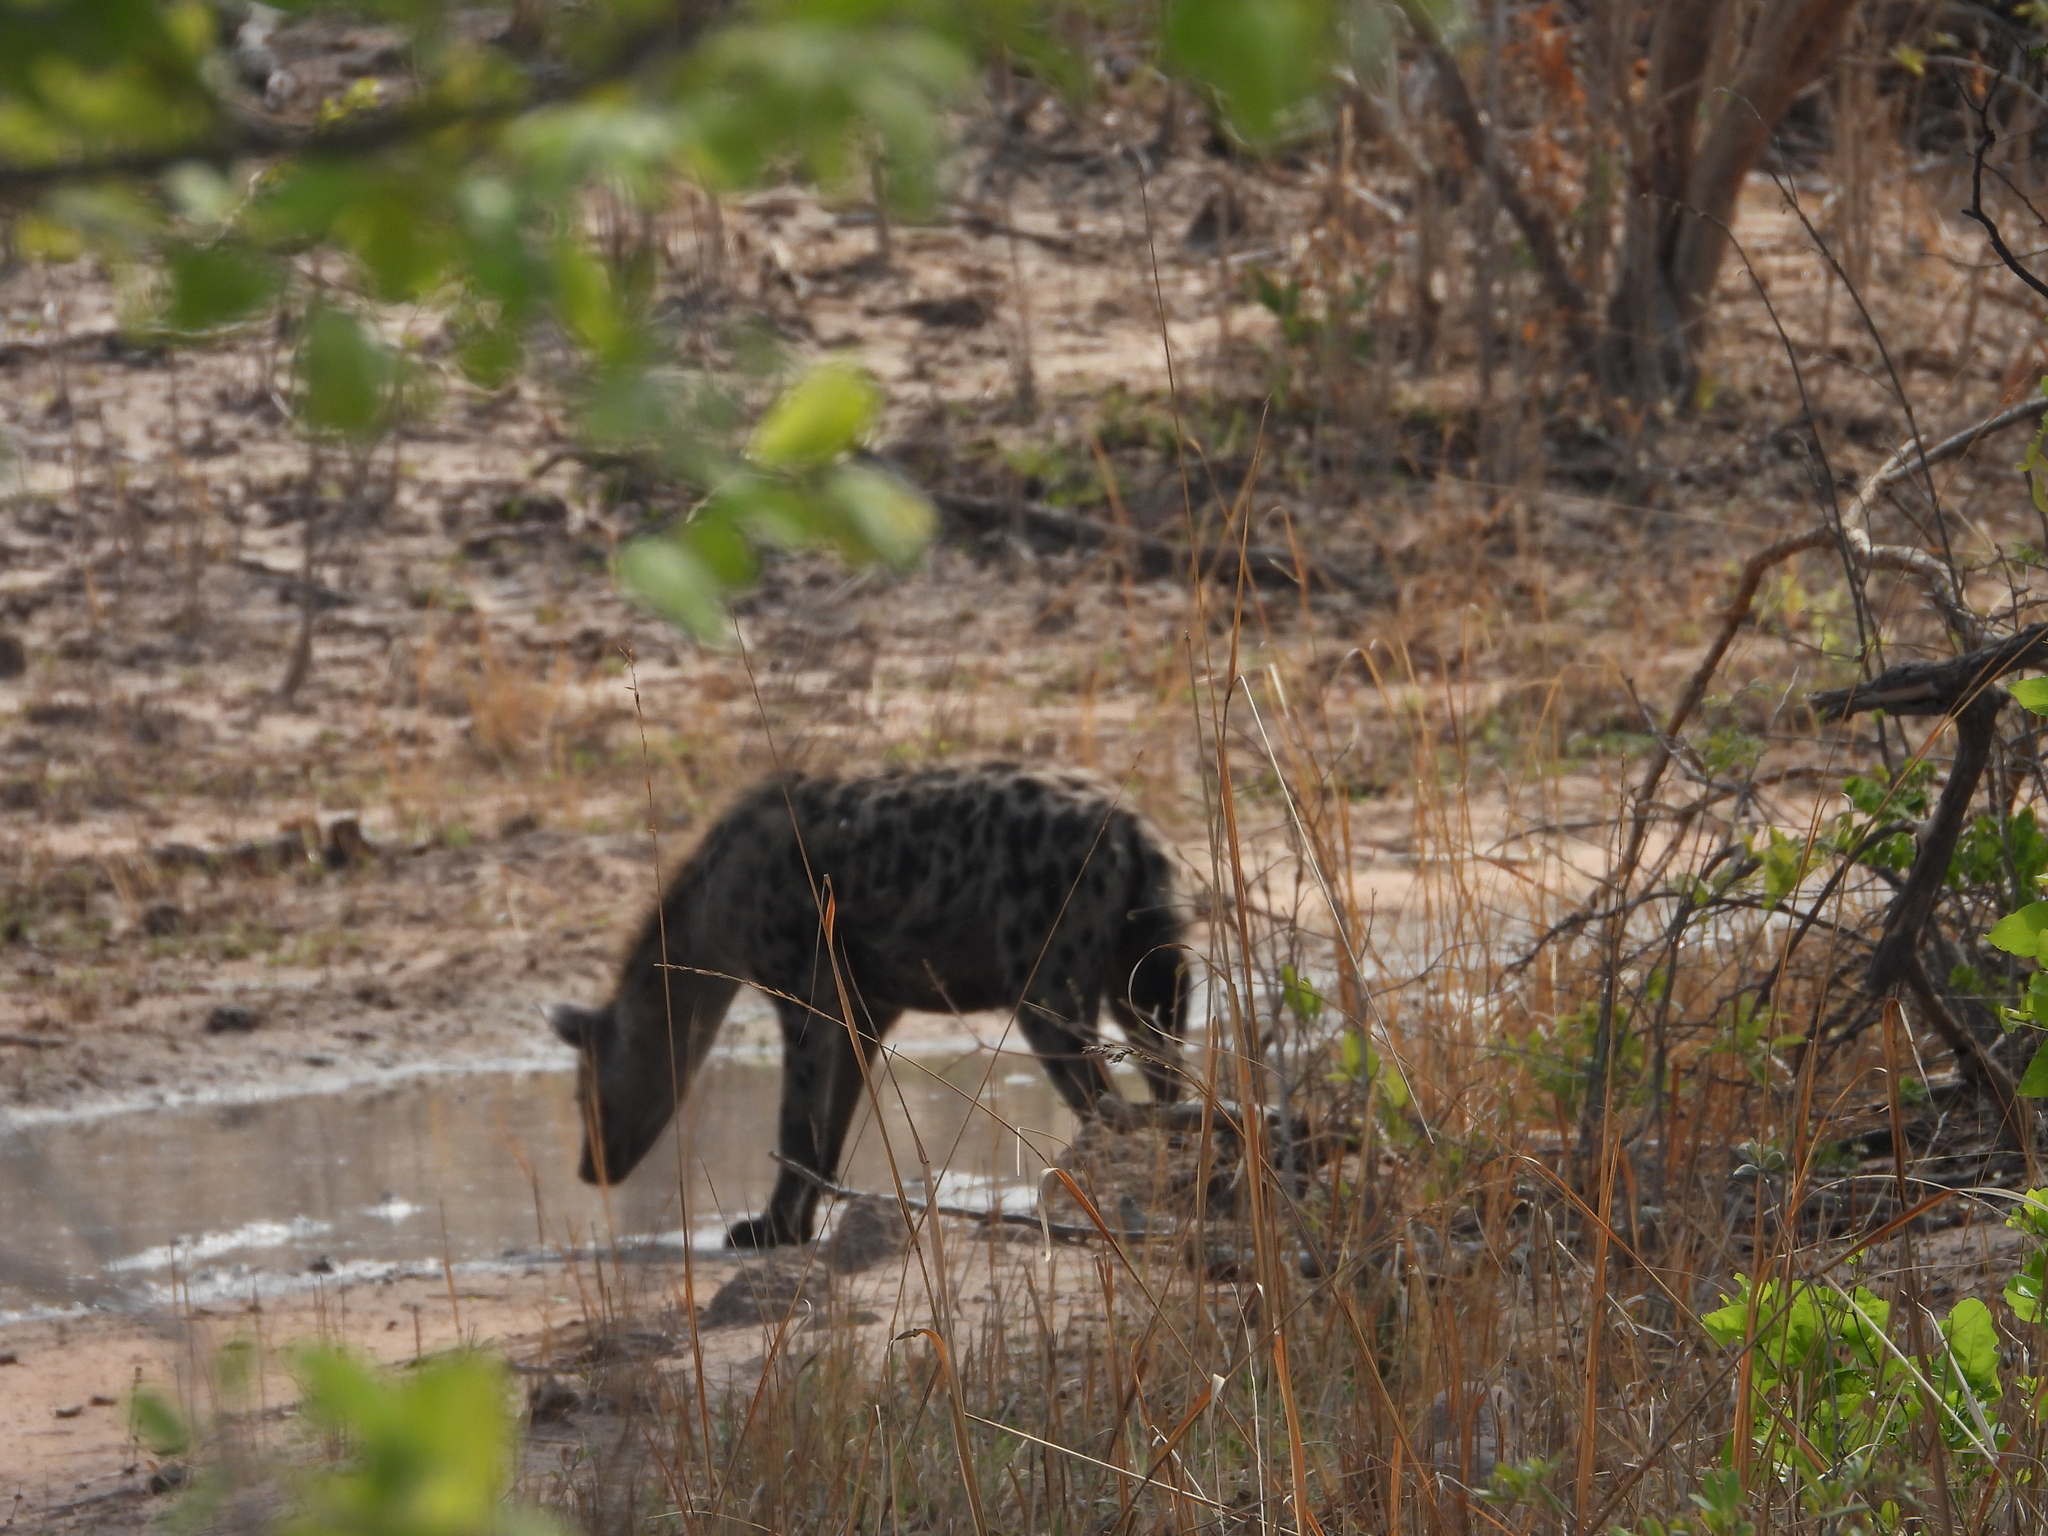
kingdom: Animalia
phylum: Chordata
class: Mammalia
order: Carnivora
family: Hyaenidae
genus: Crocuta
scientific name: Crocuta crocuta
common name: Spotted hyaena
